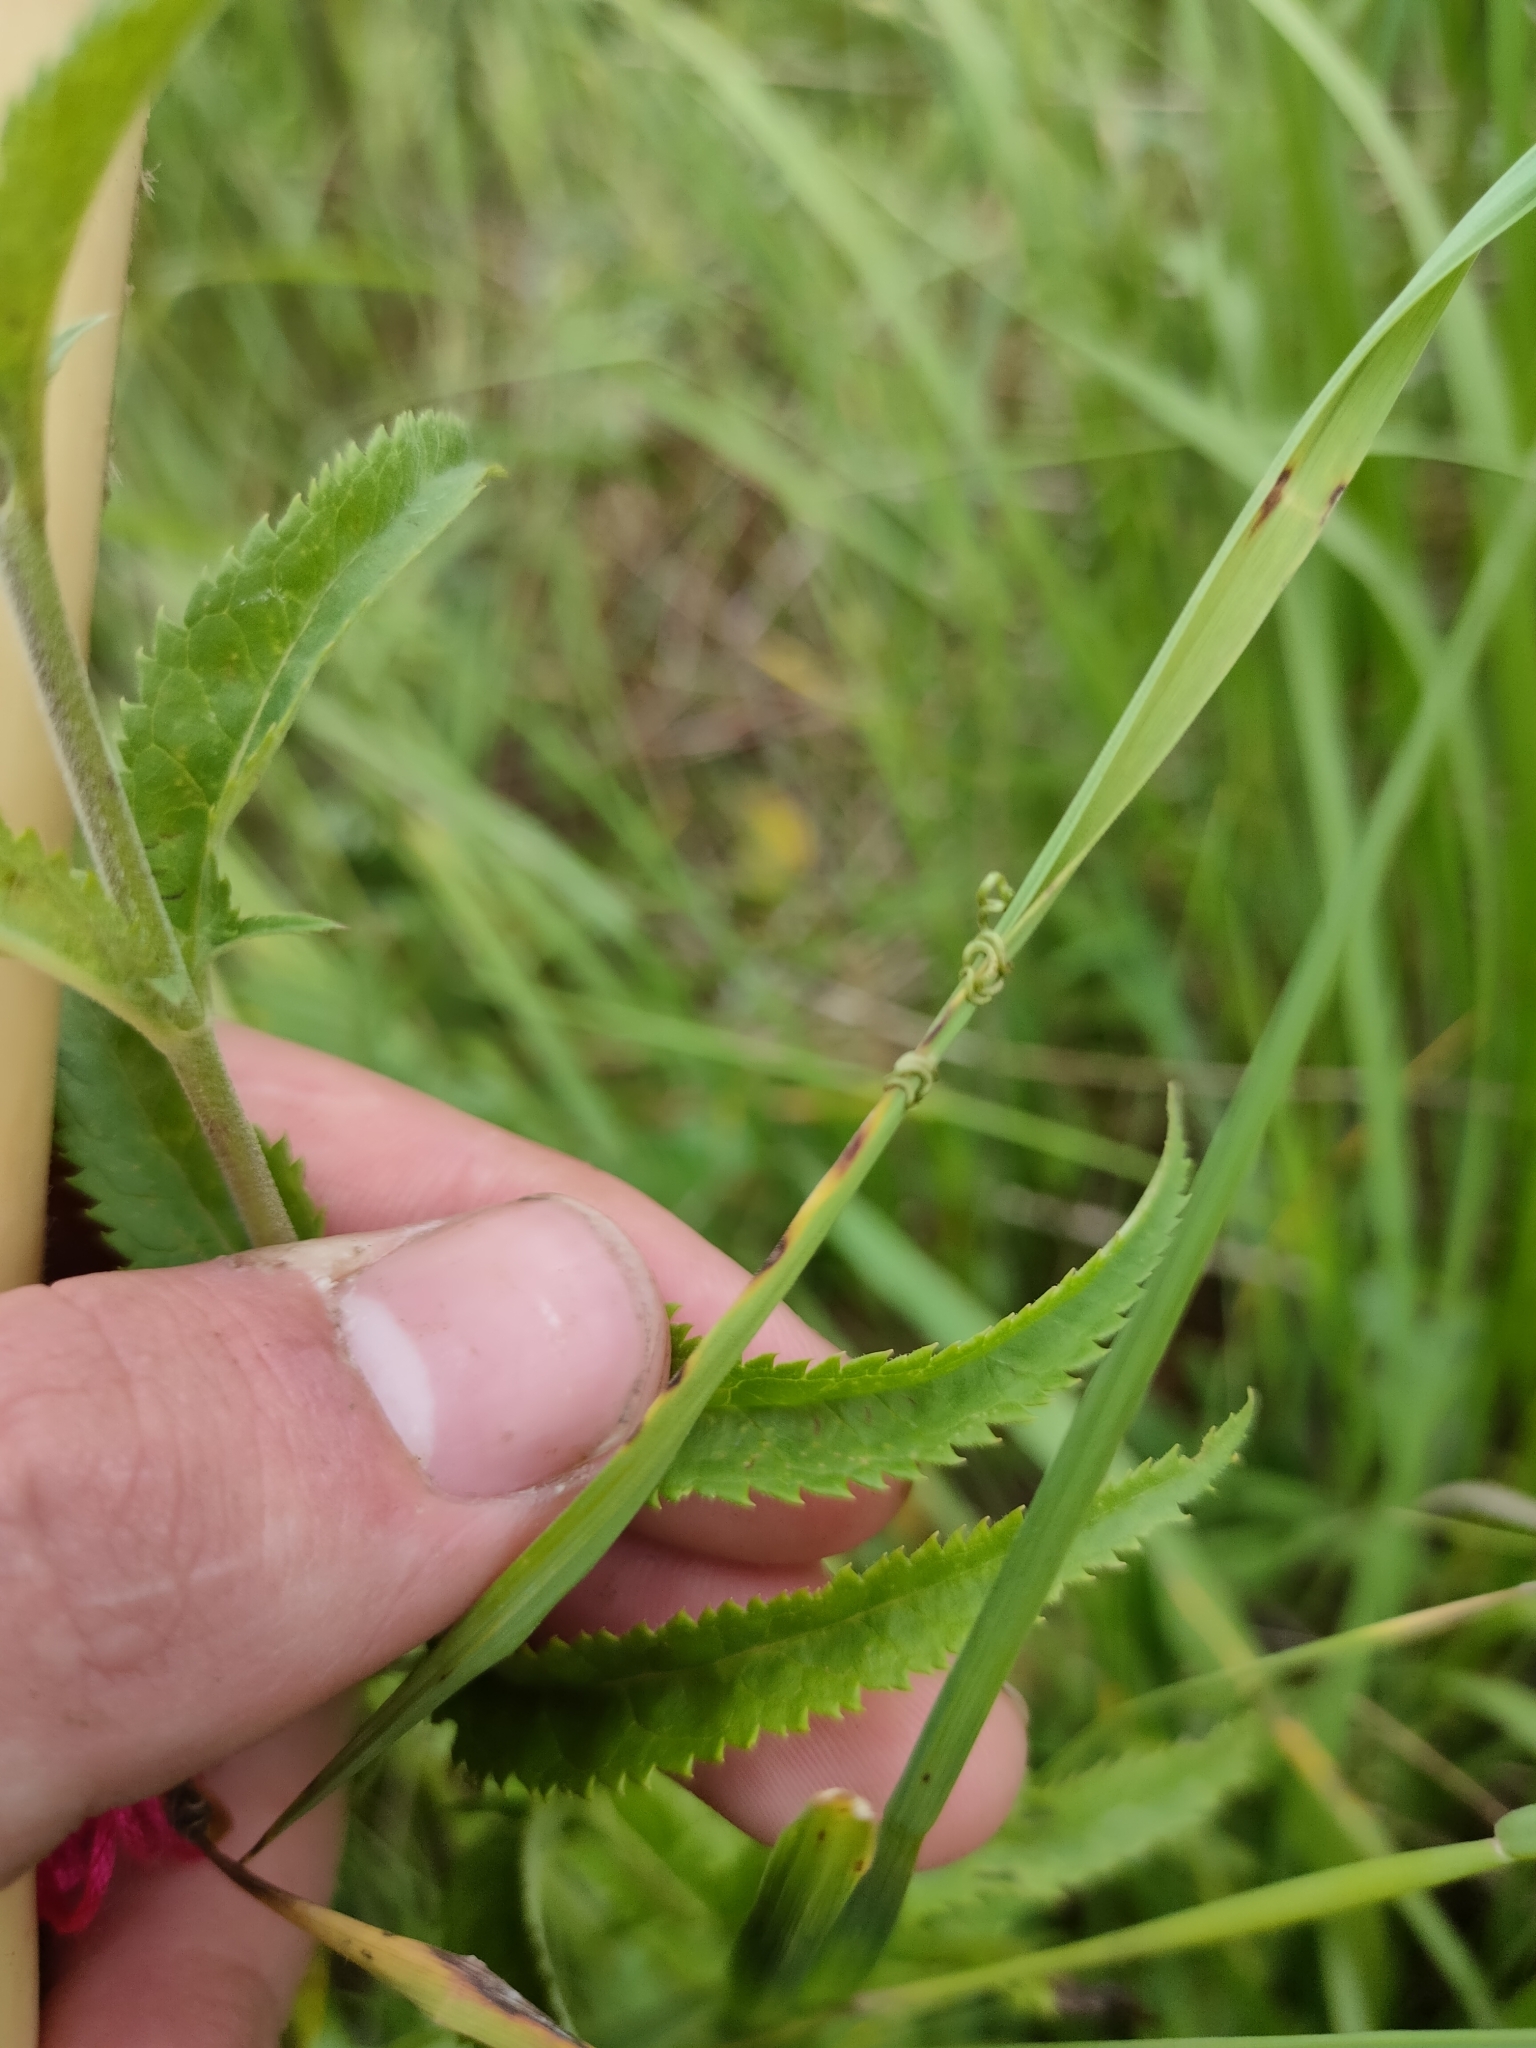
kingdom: Plantae
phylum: Tracheophyta
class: Magnoliopsida
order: Lamiales
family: Plantaginaceae
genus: Veronica
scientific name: Veronica longifolia
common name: Garden speedwell
